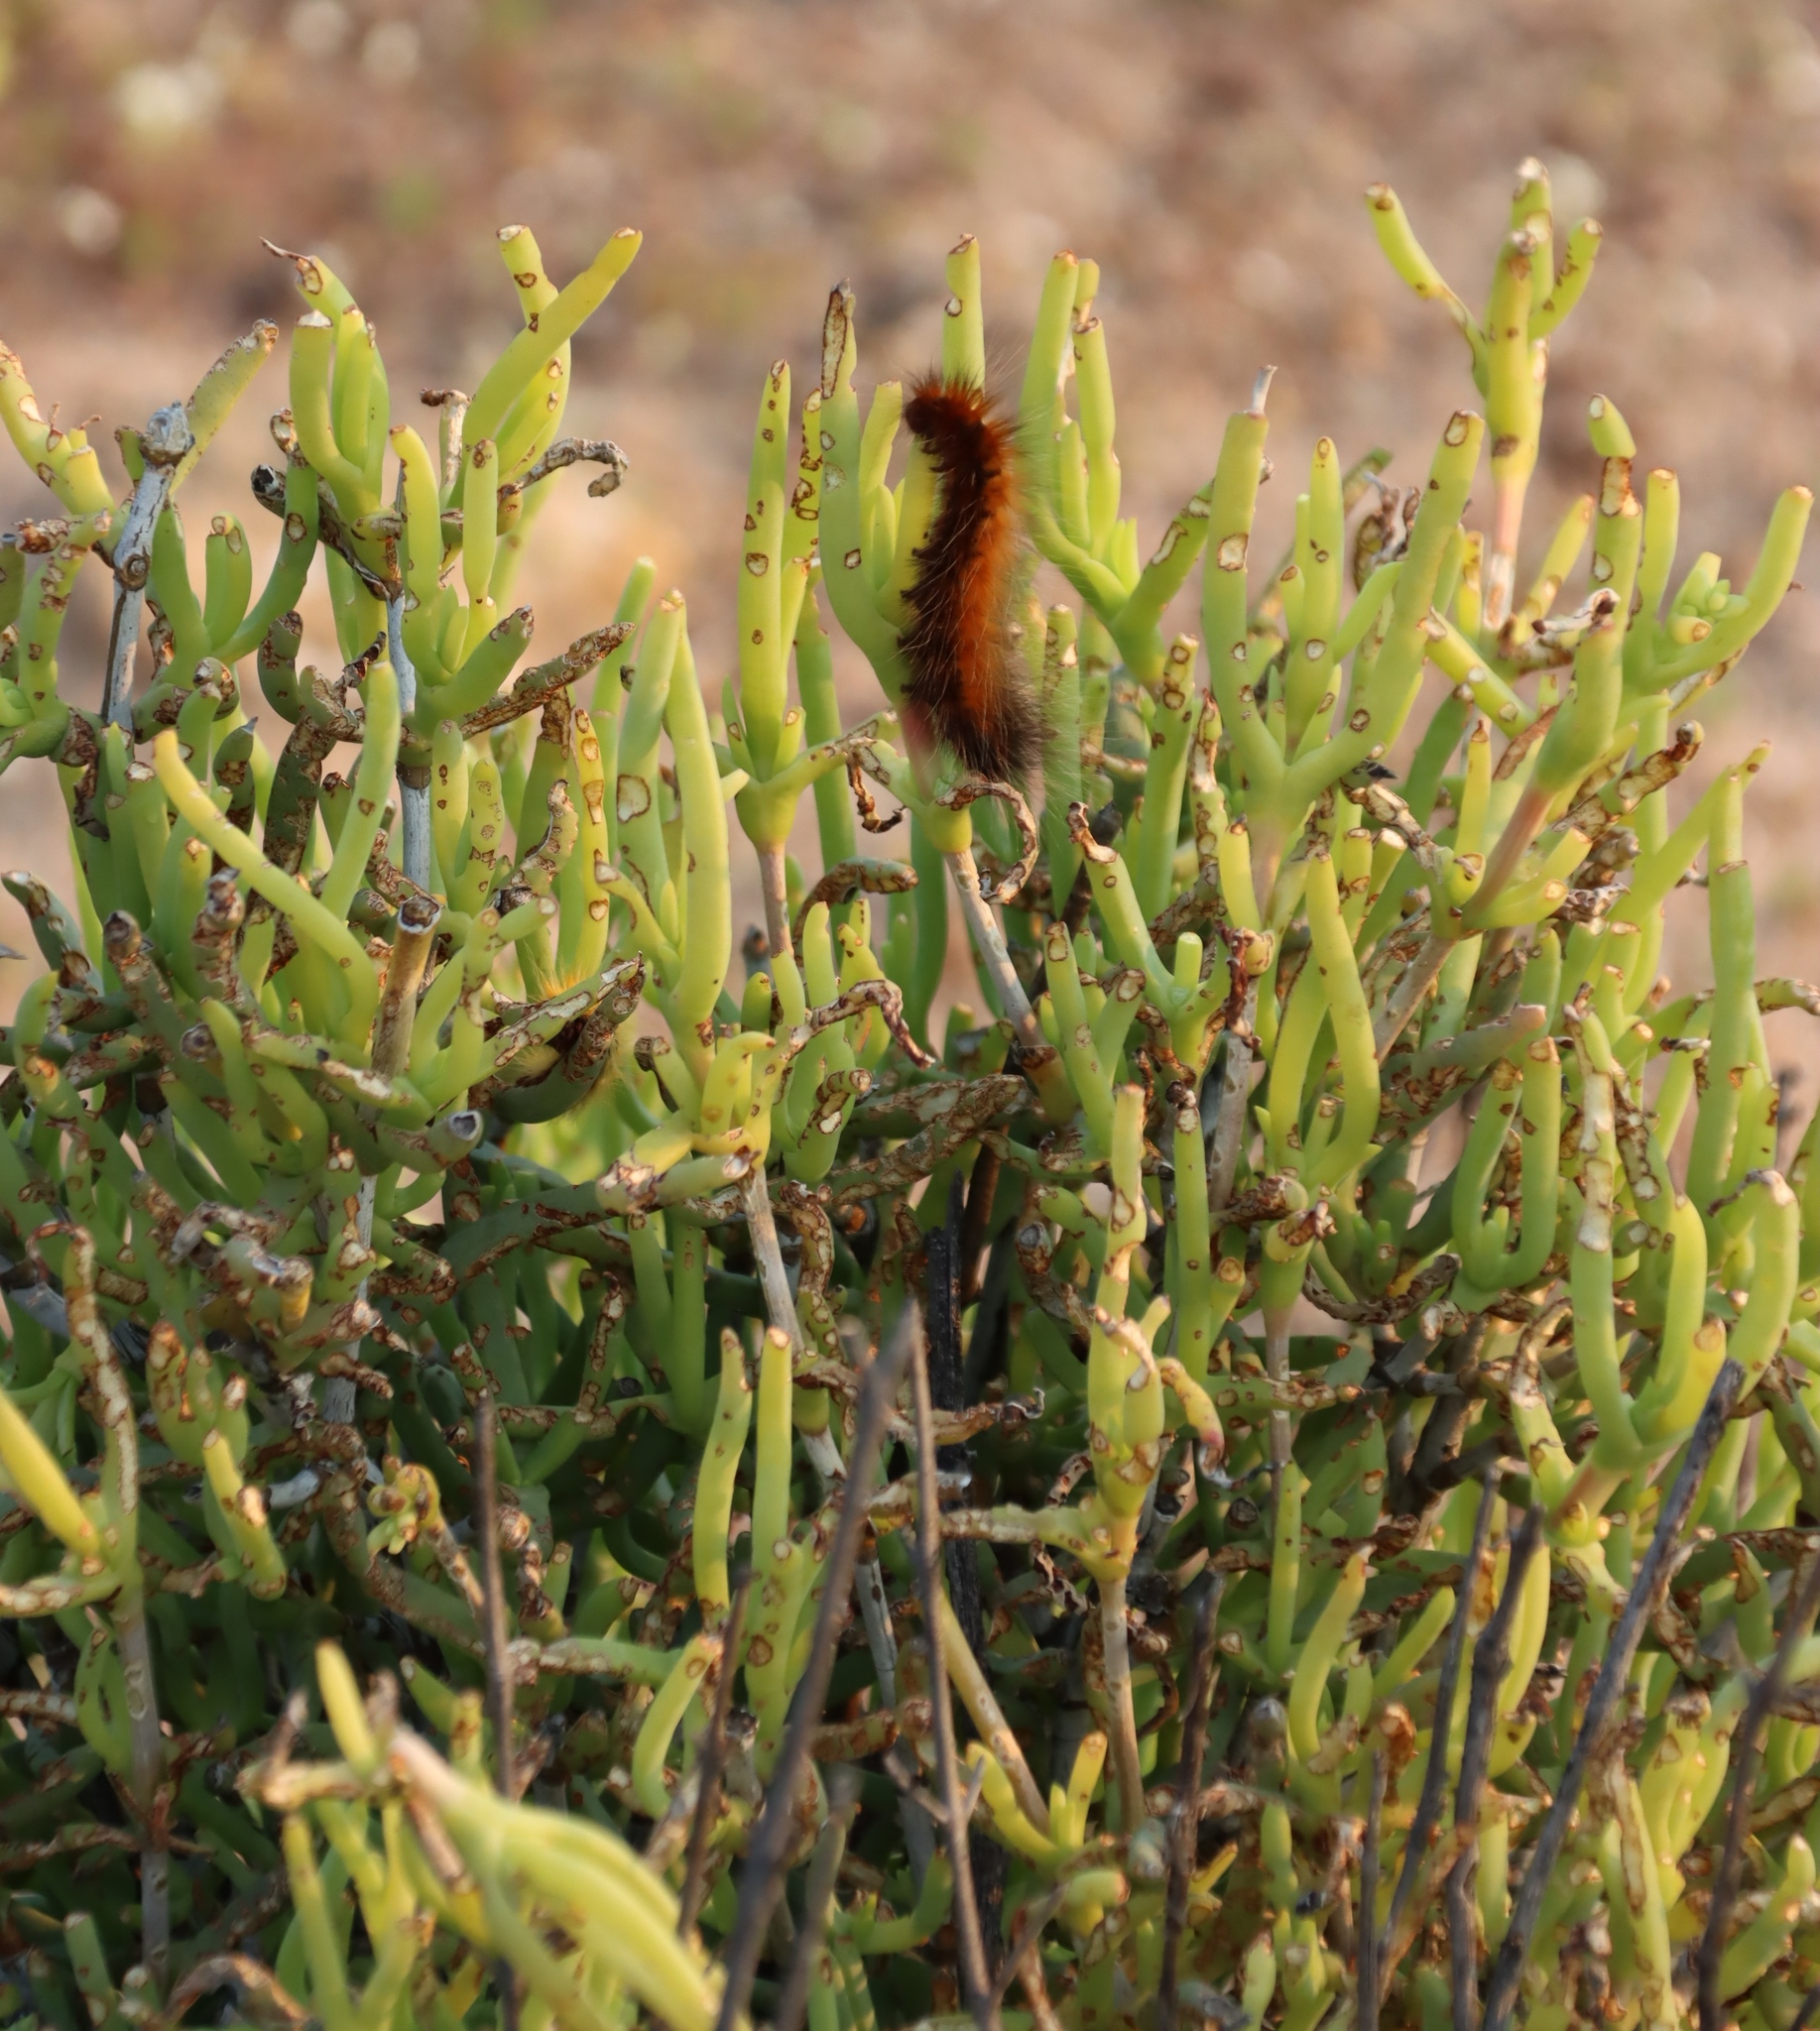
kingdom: Animalia
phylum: Arthropoda
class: Insecta
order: Lepidoptera
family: Lasiocampidae
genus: Mesocelis
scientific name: Mesocelis monticola
